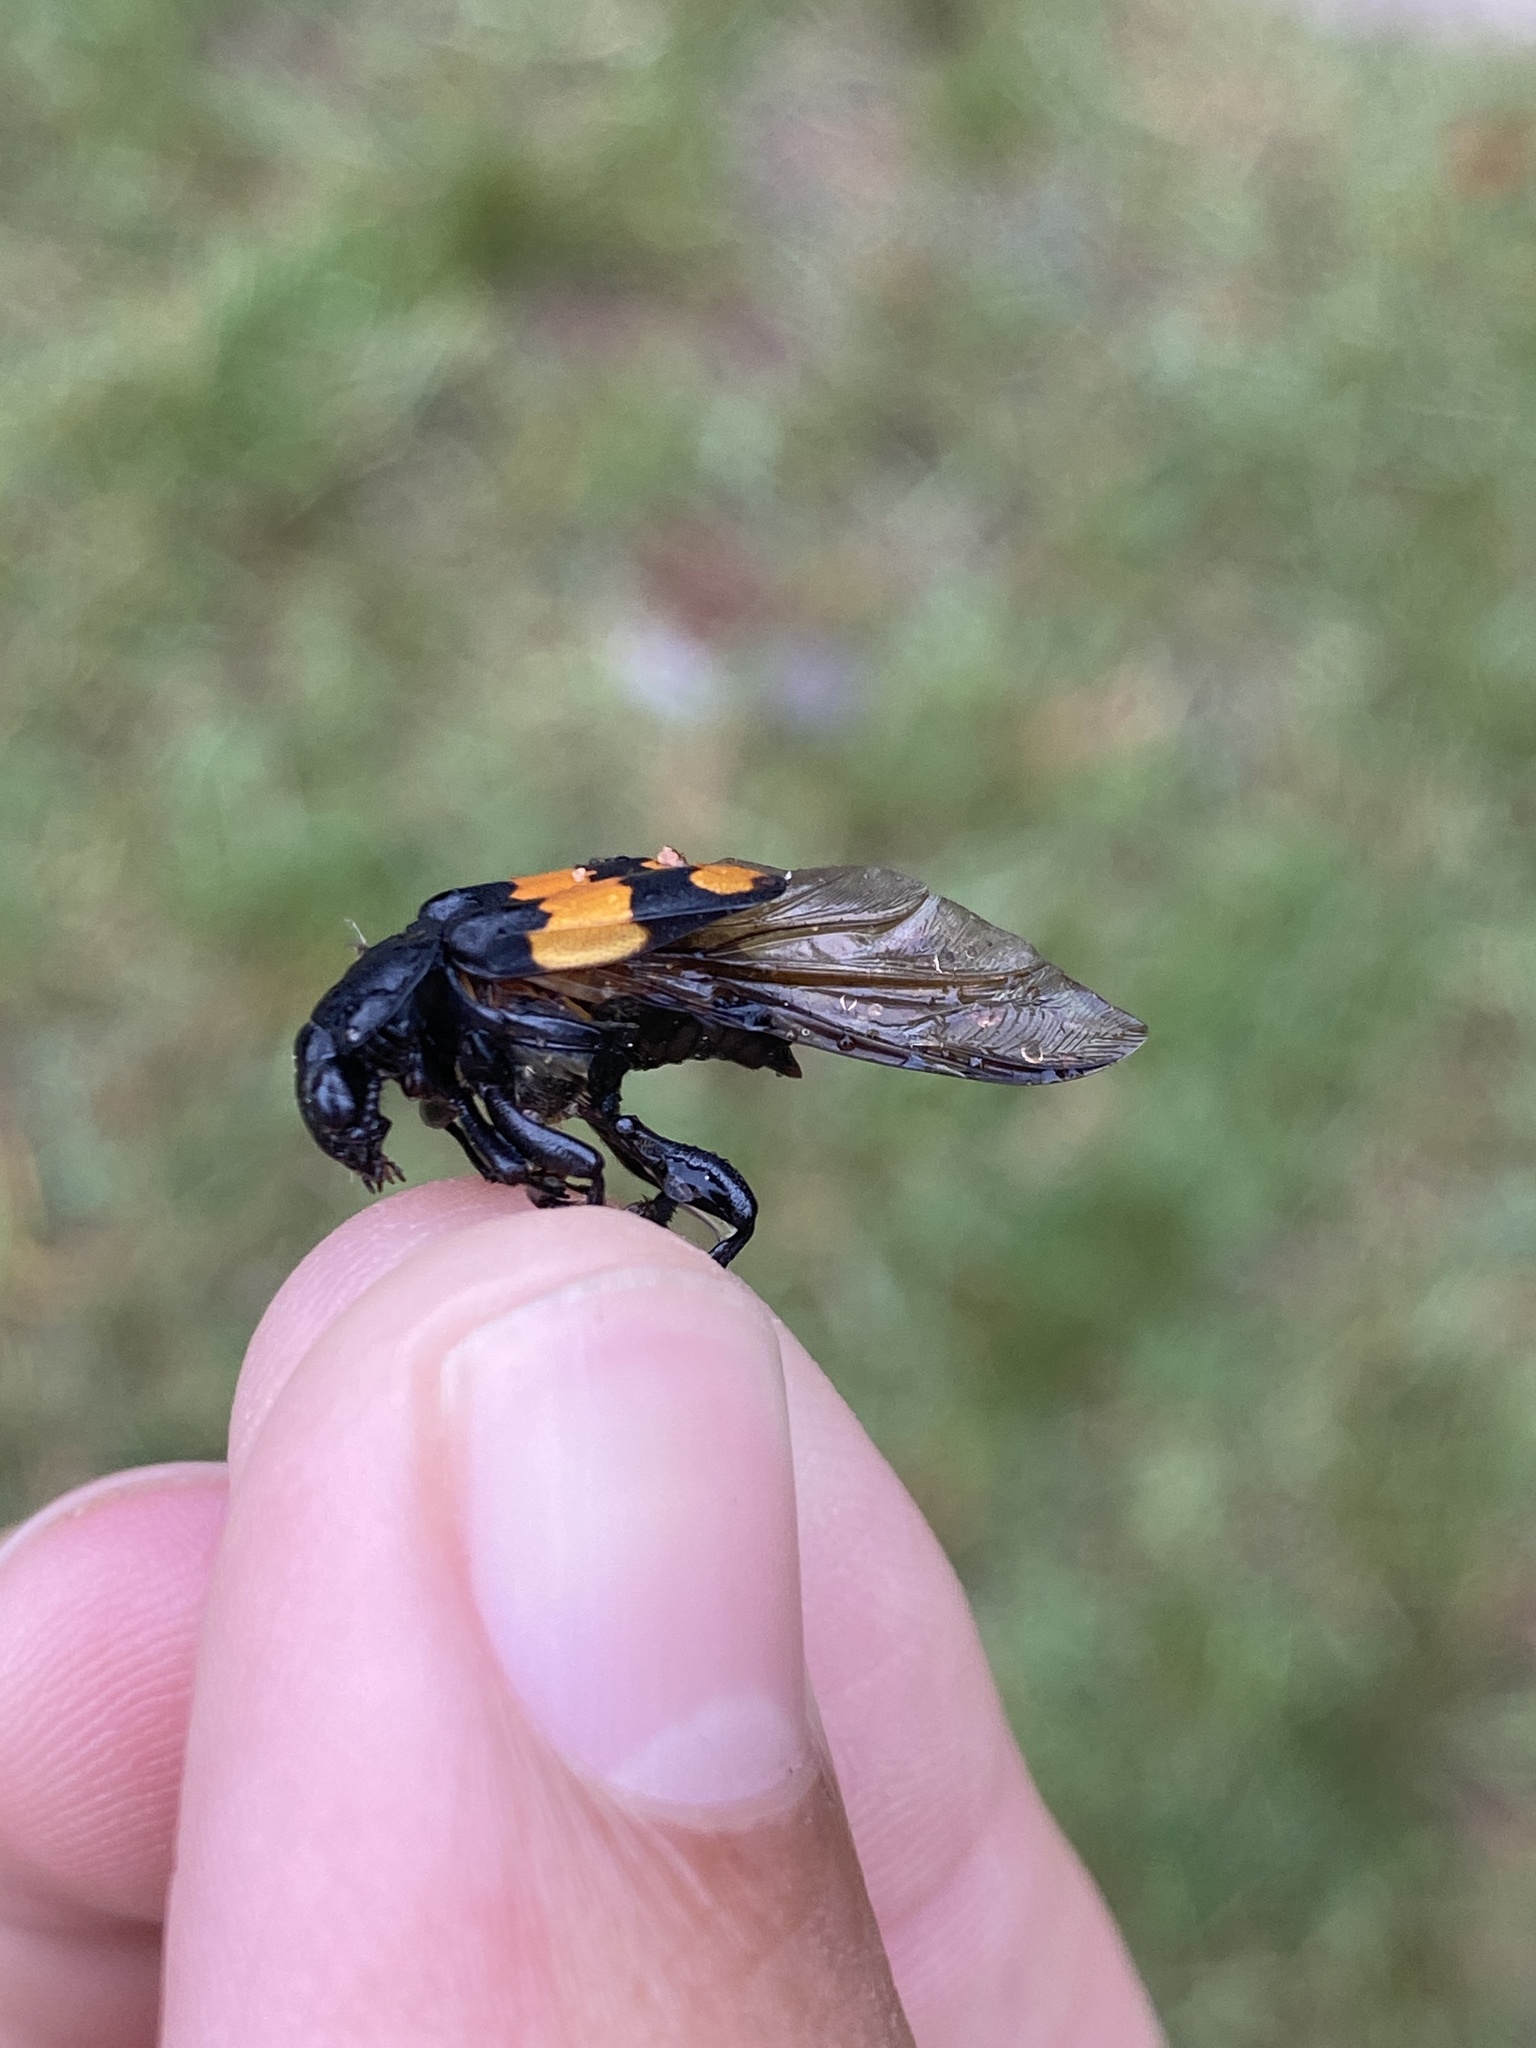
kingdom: Animalia
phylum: Arthropoda
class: Insecta
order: Coleoptera
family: Staphylinidae
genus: Nicrophorus
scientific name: Nicrophorus defodiens
